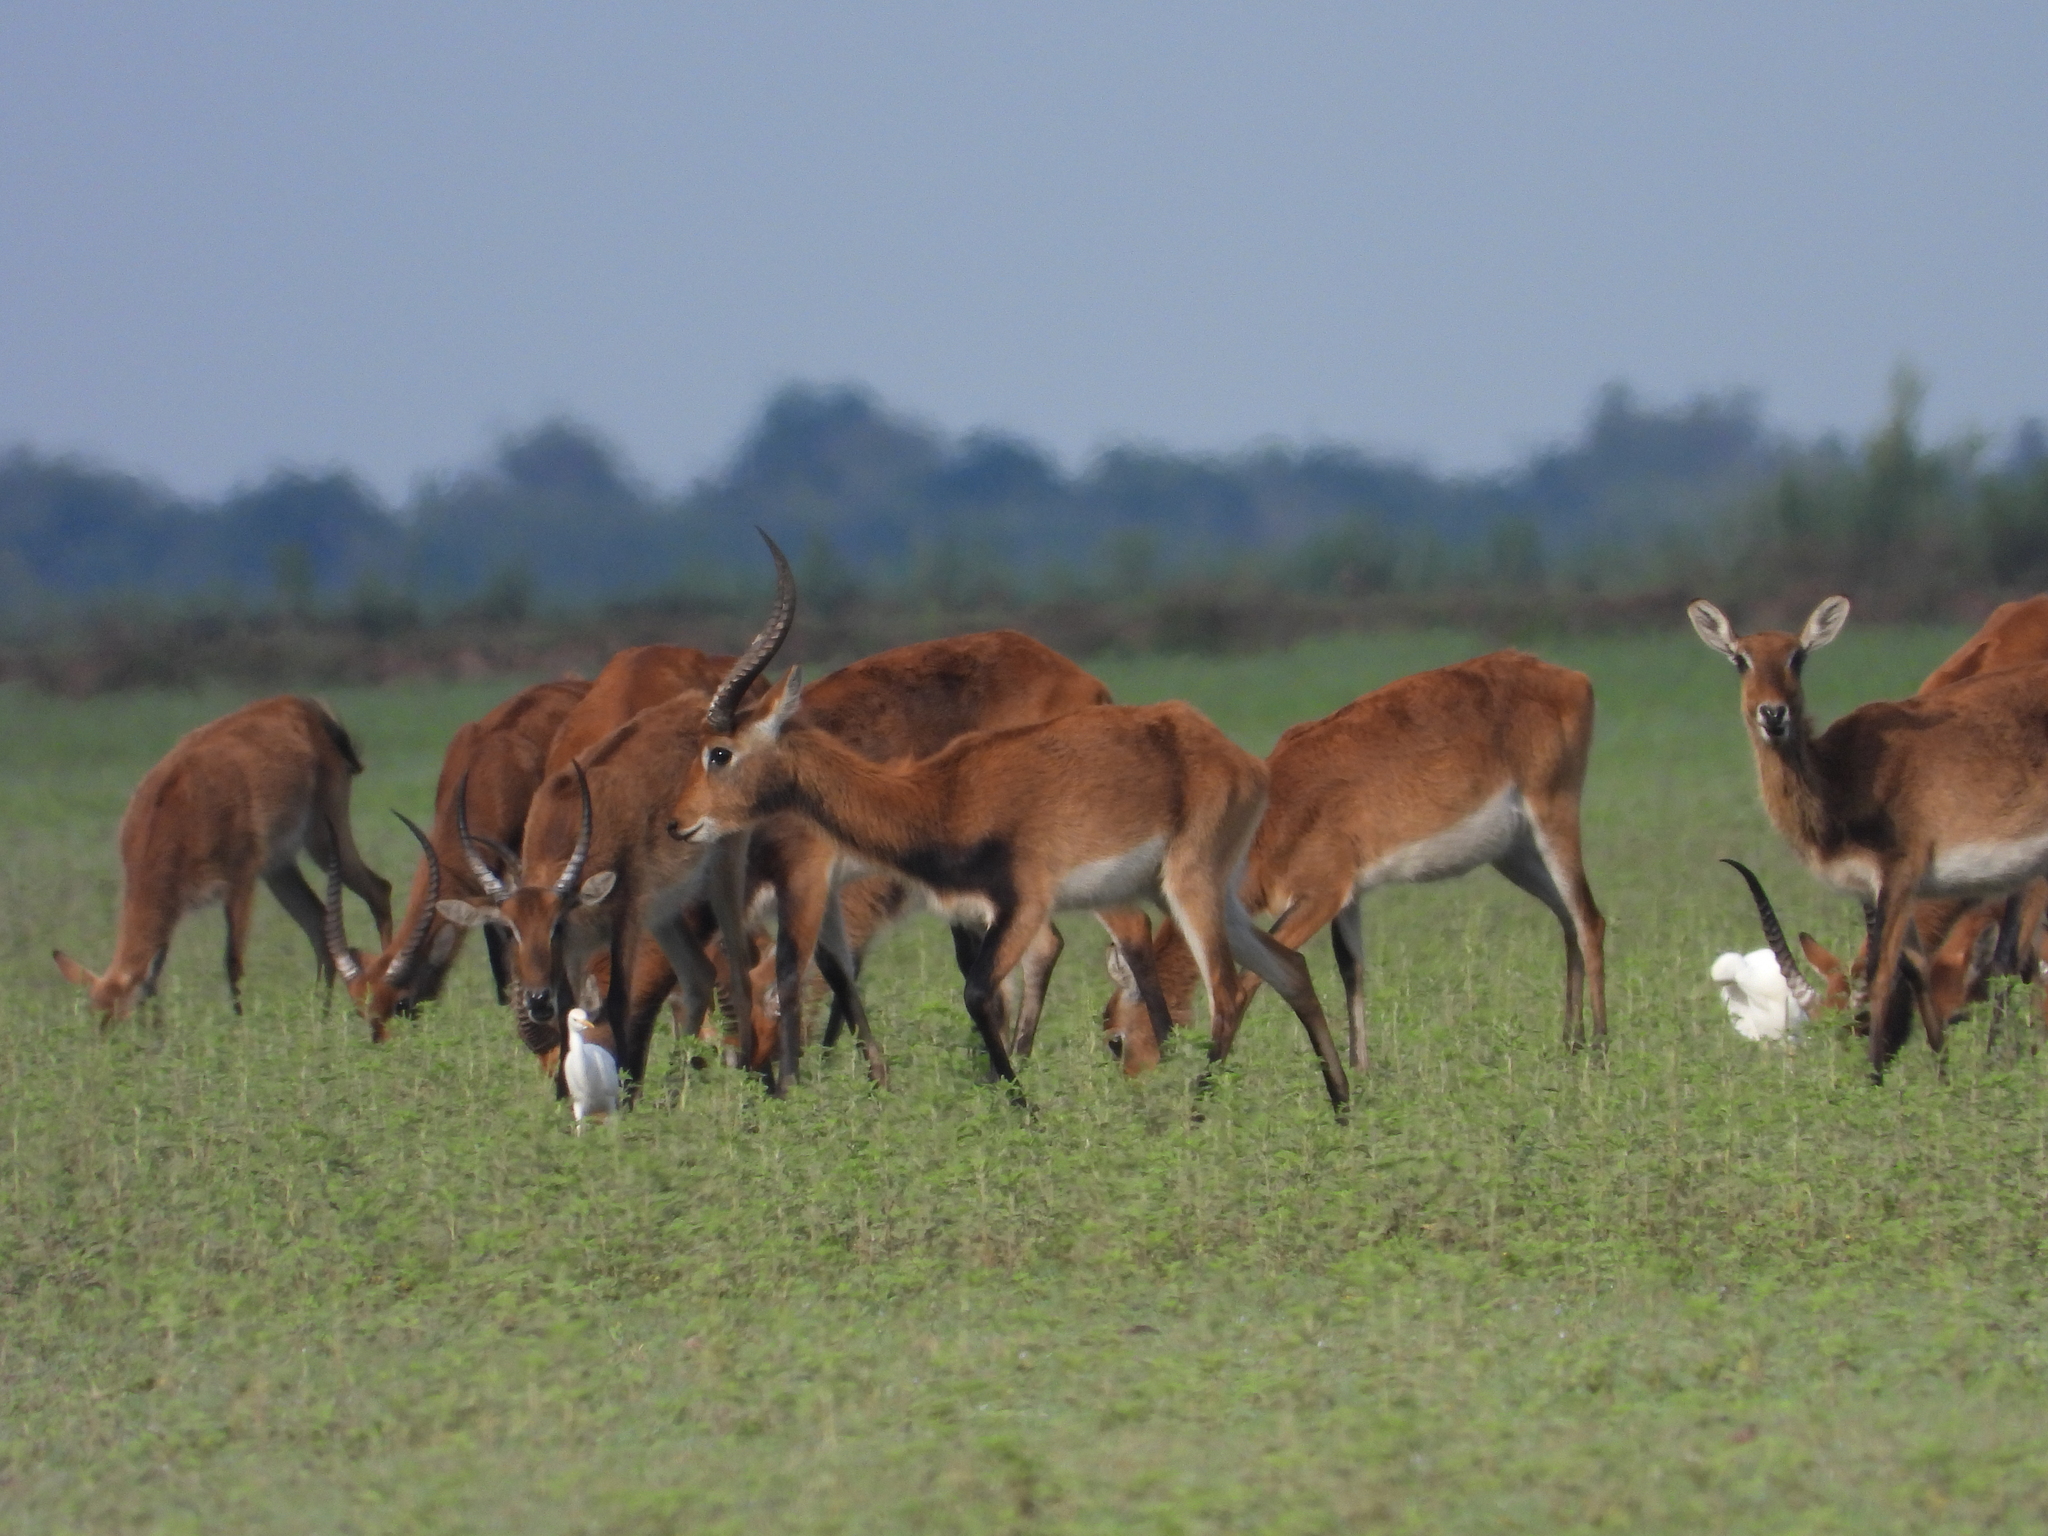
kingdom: Animalia
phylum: Chordata
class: Mammalia
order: Artiodactyla
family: Bovidae
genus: Kobus
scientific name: Kobus leche
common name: Lechwe
